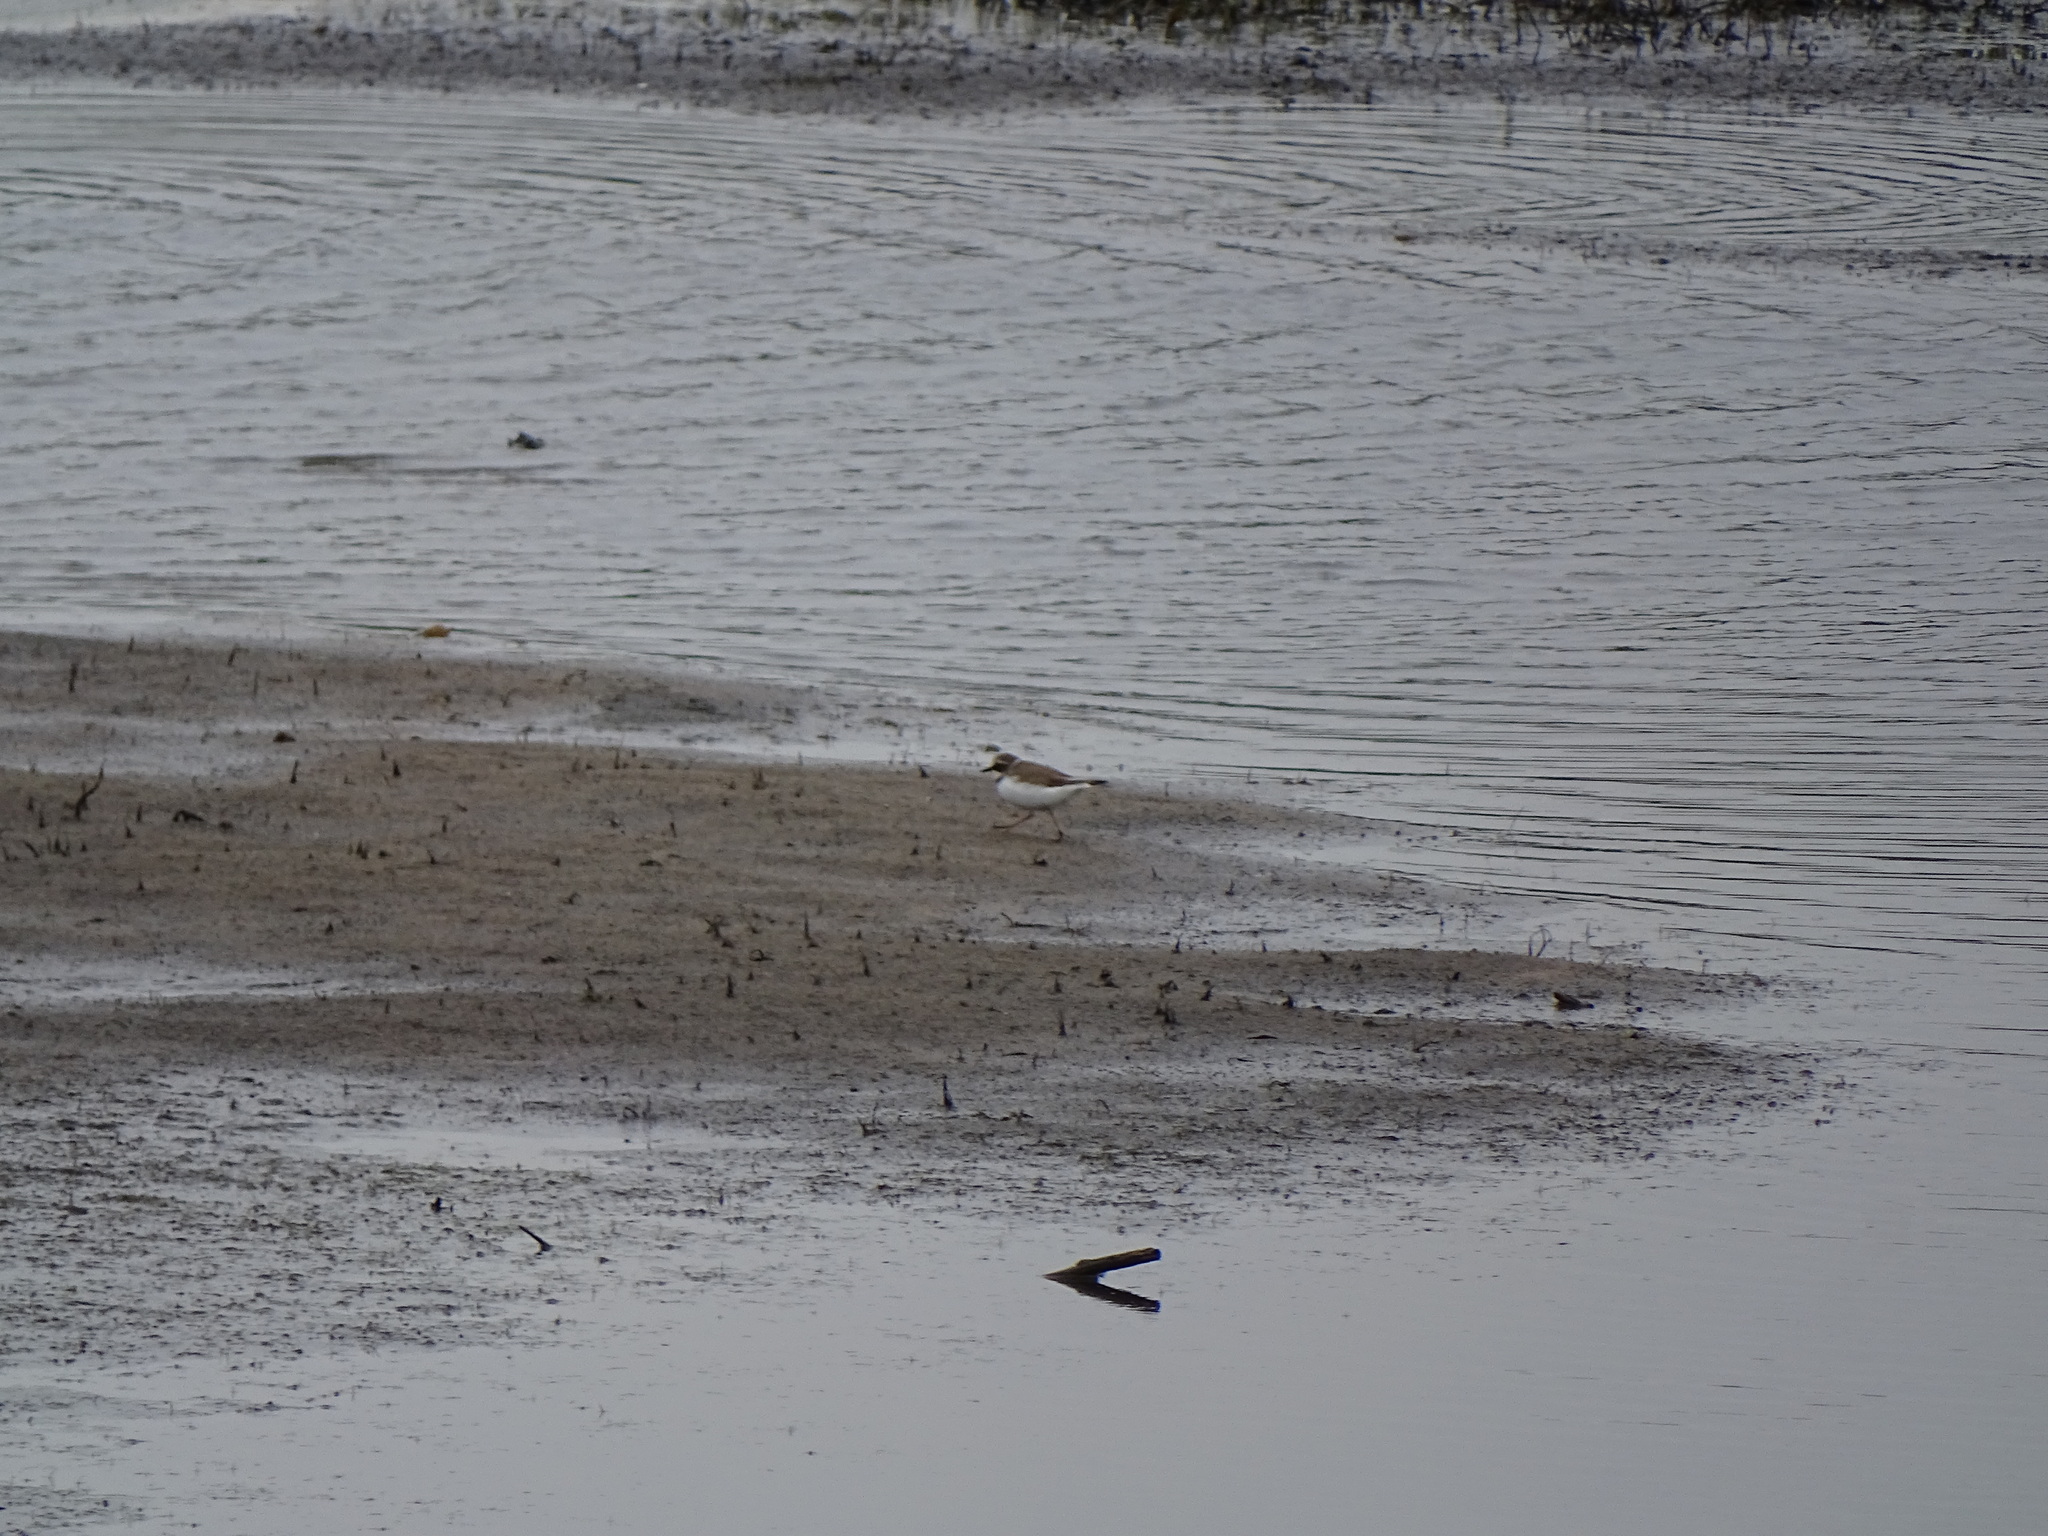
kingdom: Animalia
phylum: Chordata
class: Aves
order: Charadriiformes
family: Charadriidae
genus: Charadrius
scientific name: Charadrius dubius
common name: Little ringed plover
